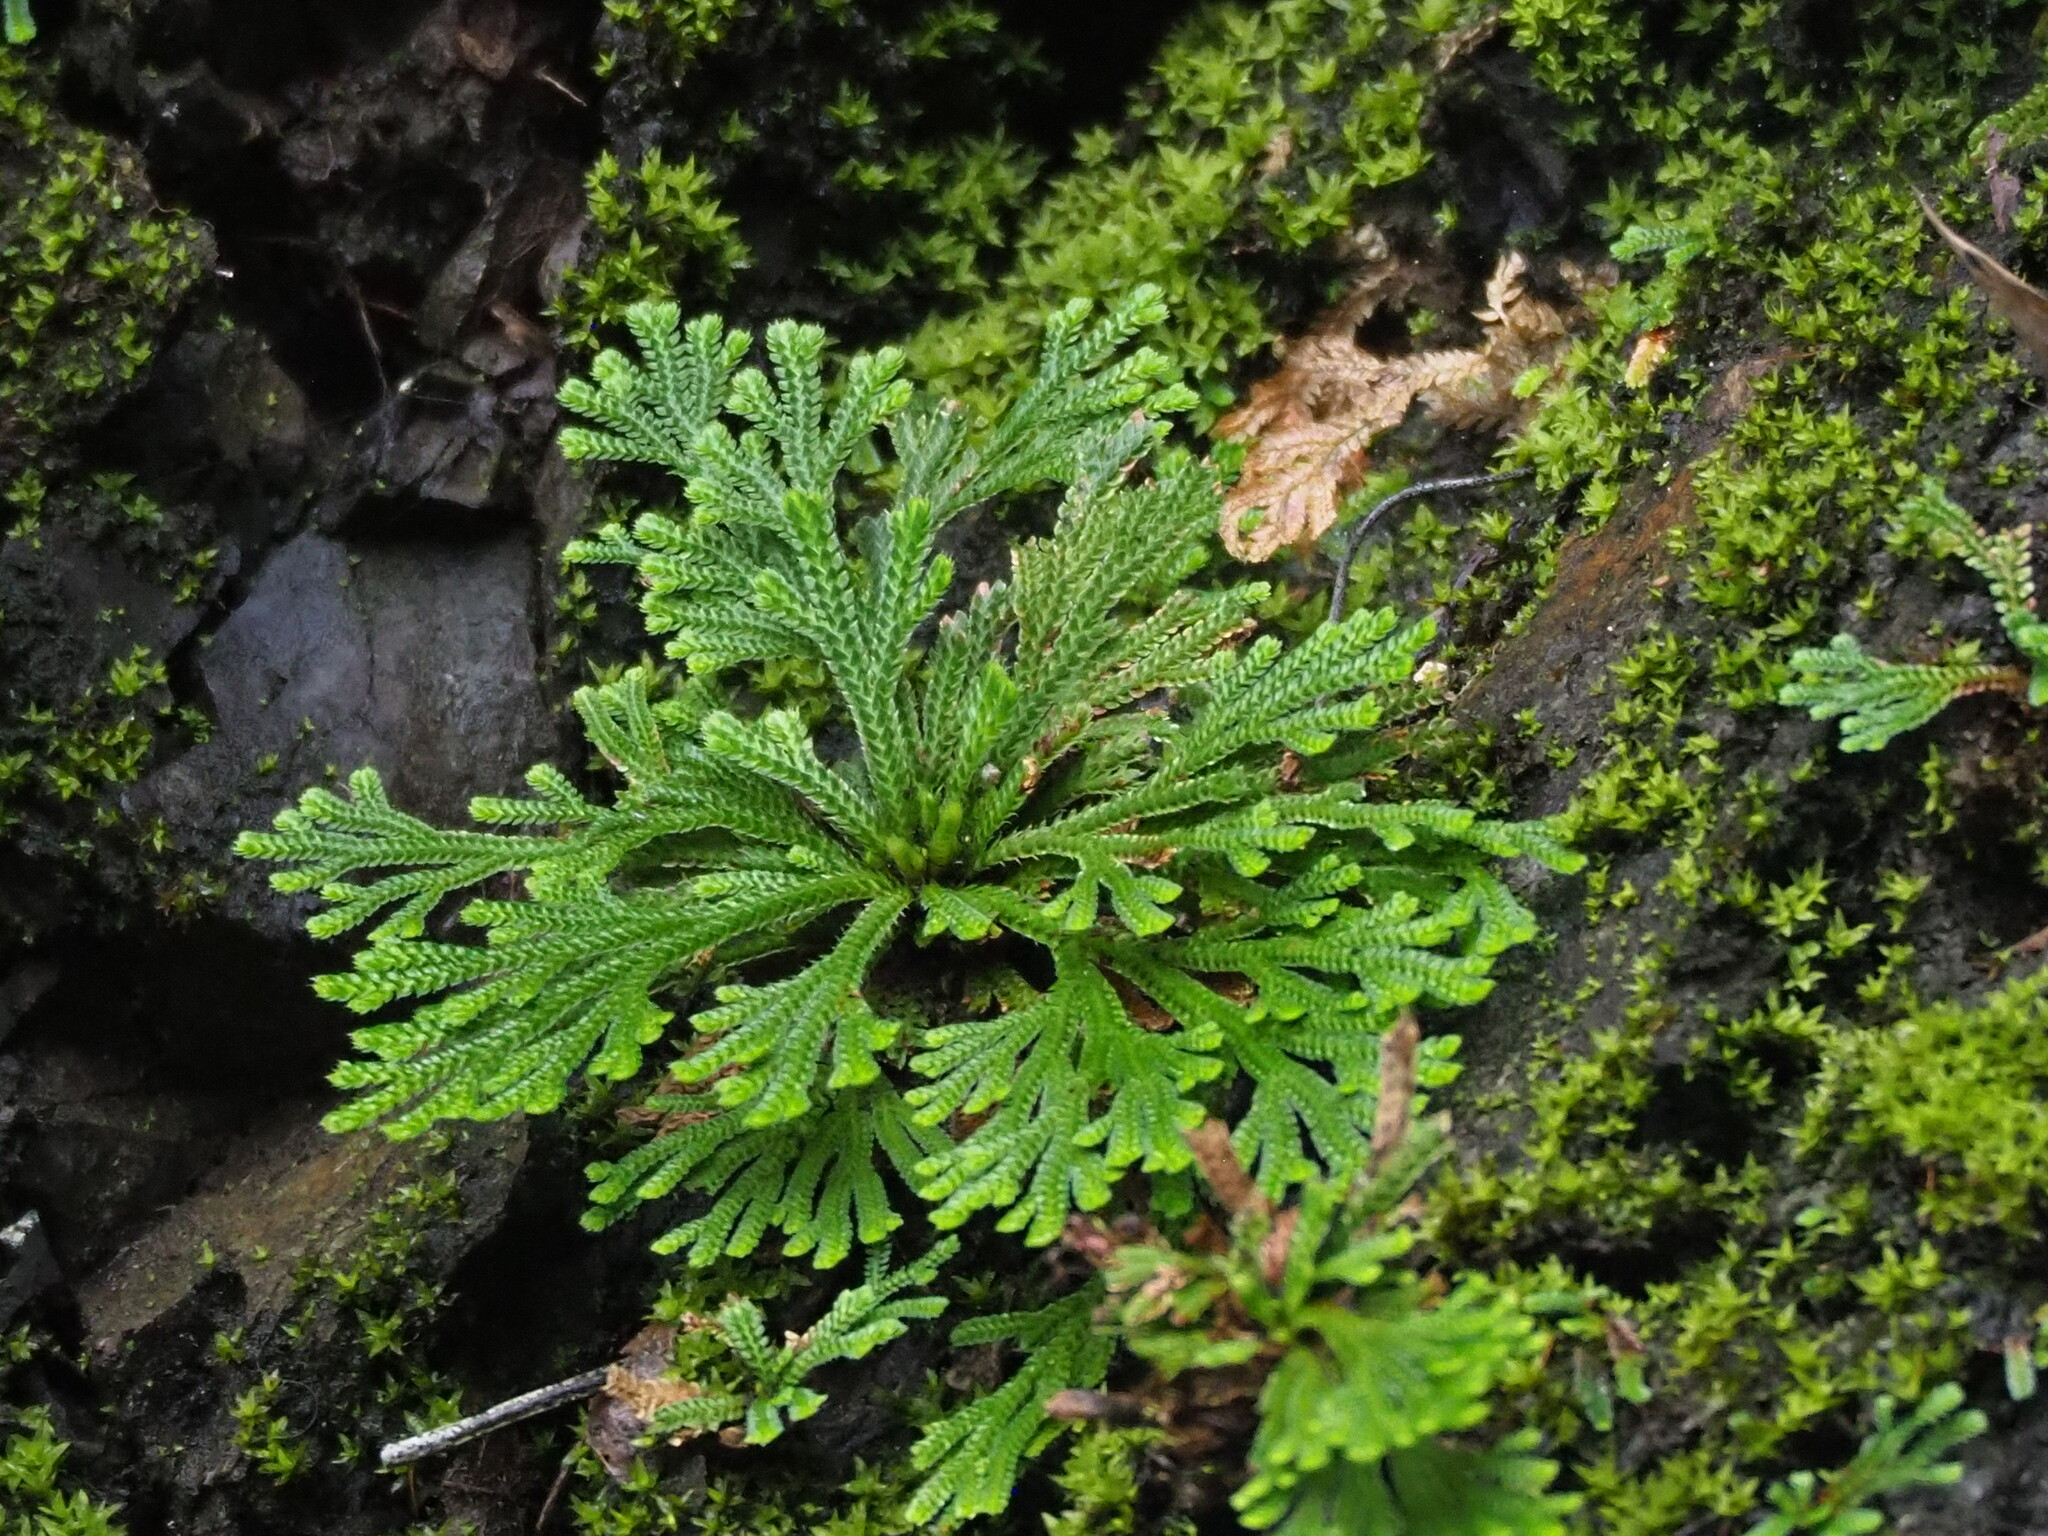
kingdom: Plantae
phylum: Tracheophyta
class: Lycopodiopsida
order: Selaginellales
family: Selaginellaceae
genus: Selaginella
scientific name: Selaginella tamariscina
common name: Little-club-moss
